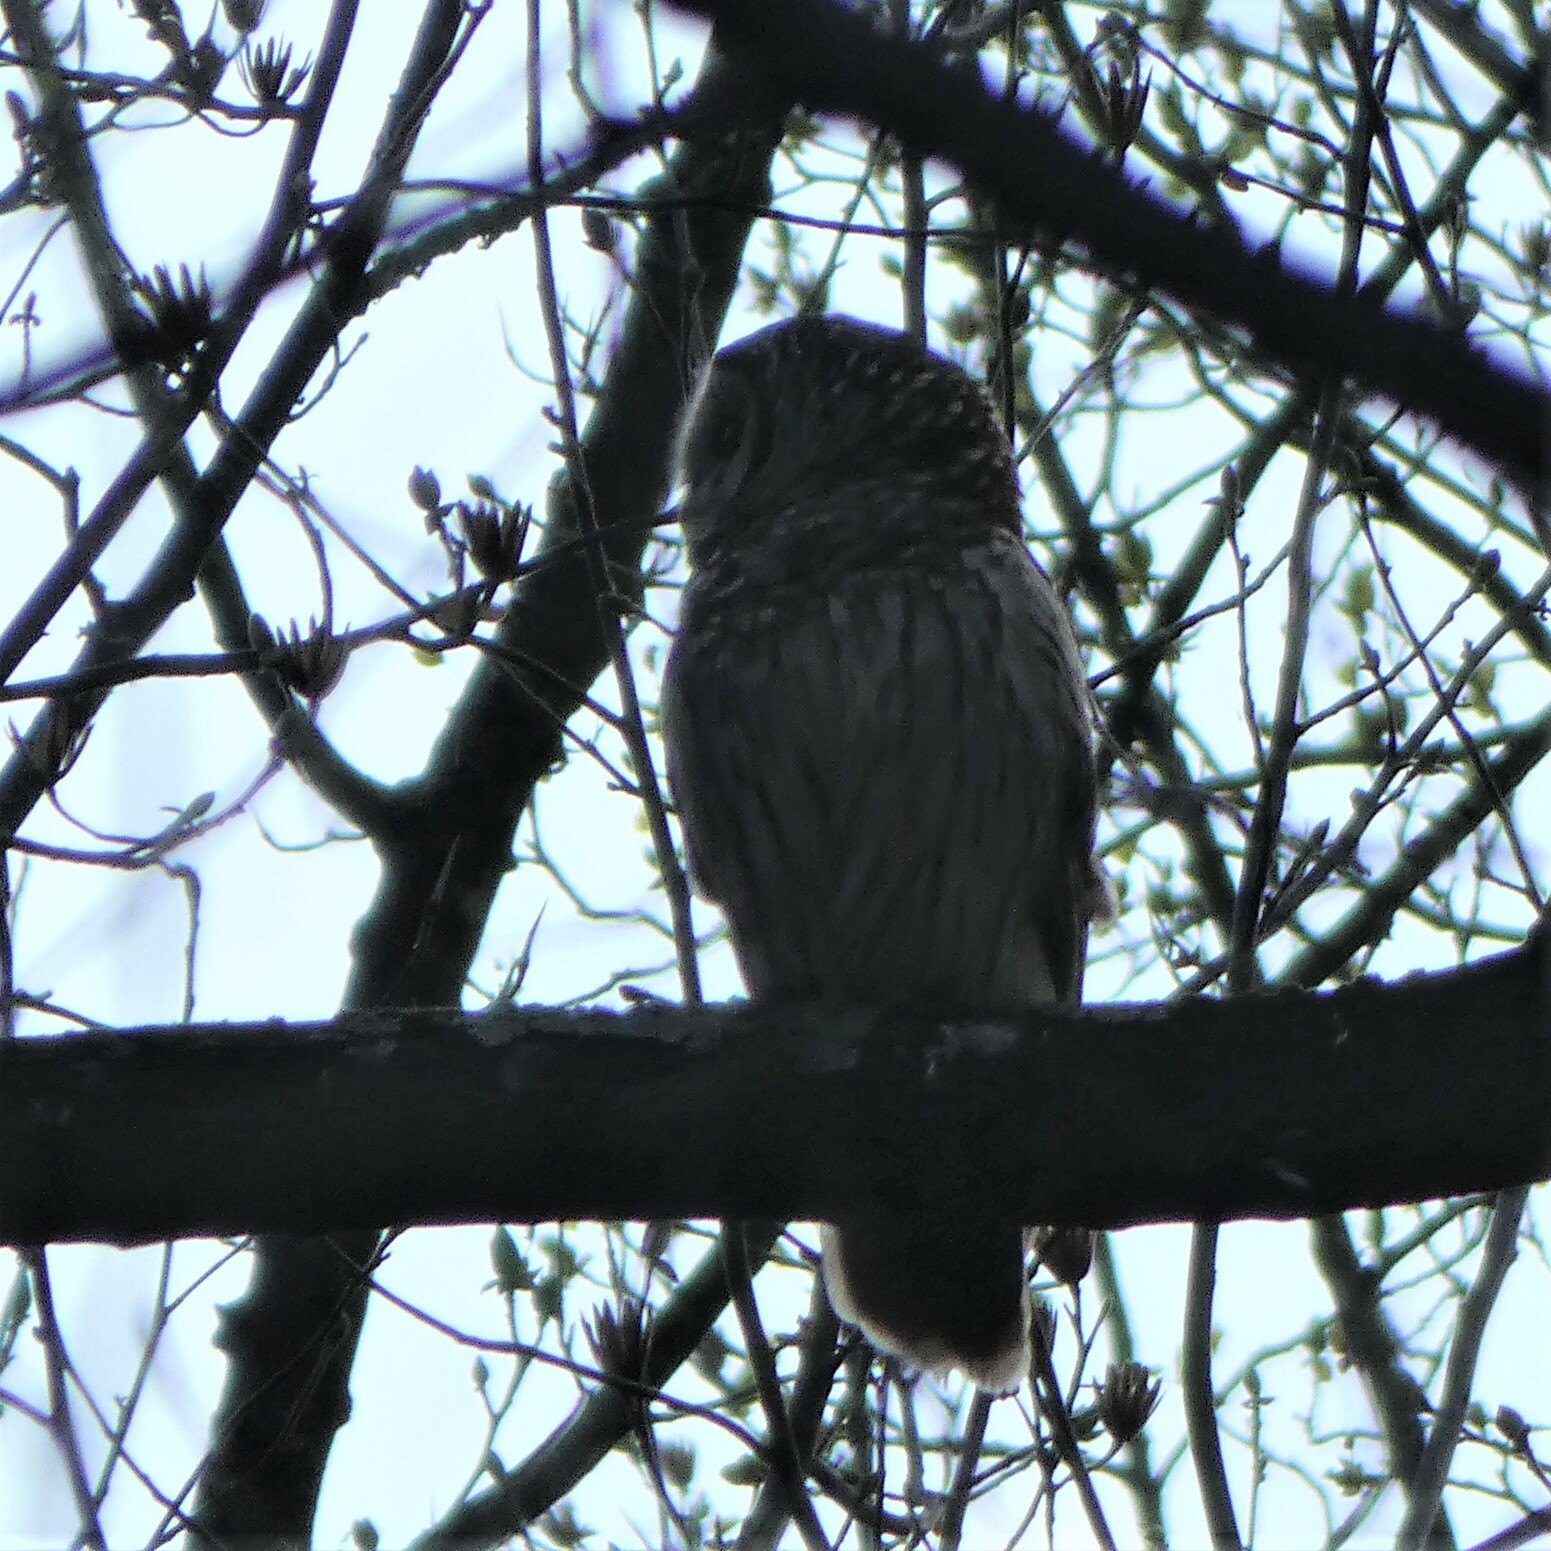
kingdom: Animalia
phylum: Chordata
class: Aves
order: Strigiformes
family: Strigidae
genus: Strix
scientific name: Strix varia
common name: Barred owl
